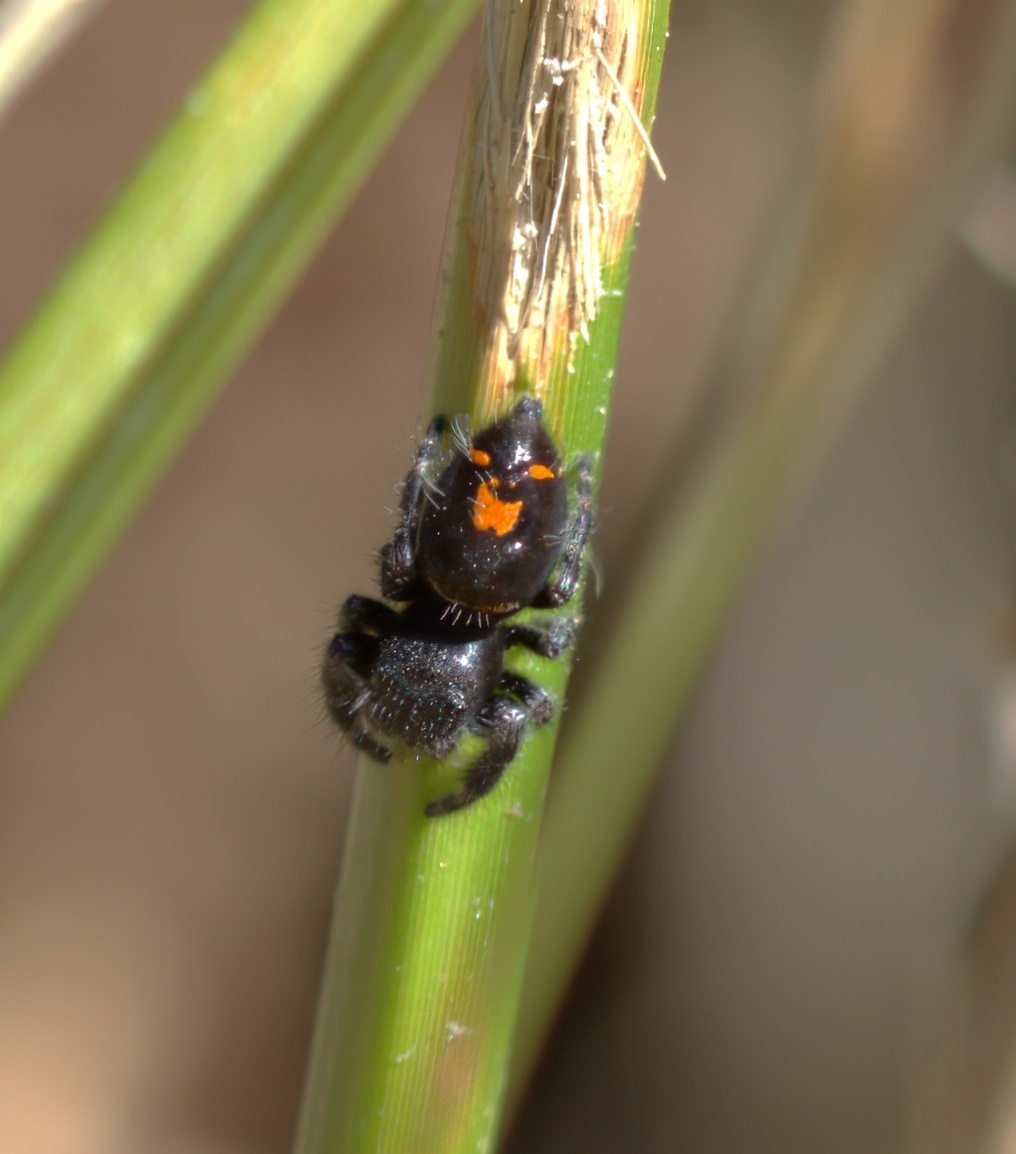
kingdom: Animalia
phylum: Arthropoda
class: Arachnida
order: Araneae
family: Salticidae
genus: Phidippus
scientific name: Phidippus audax
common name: Bold jumper
